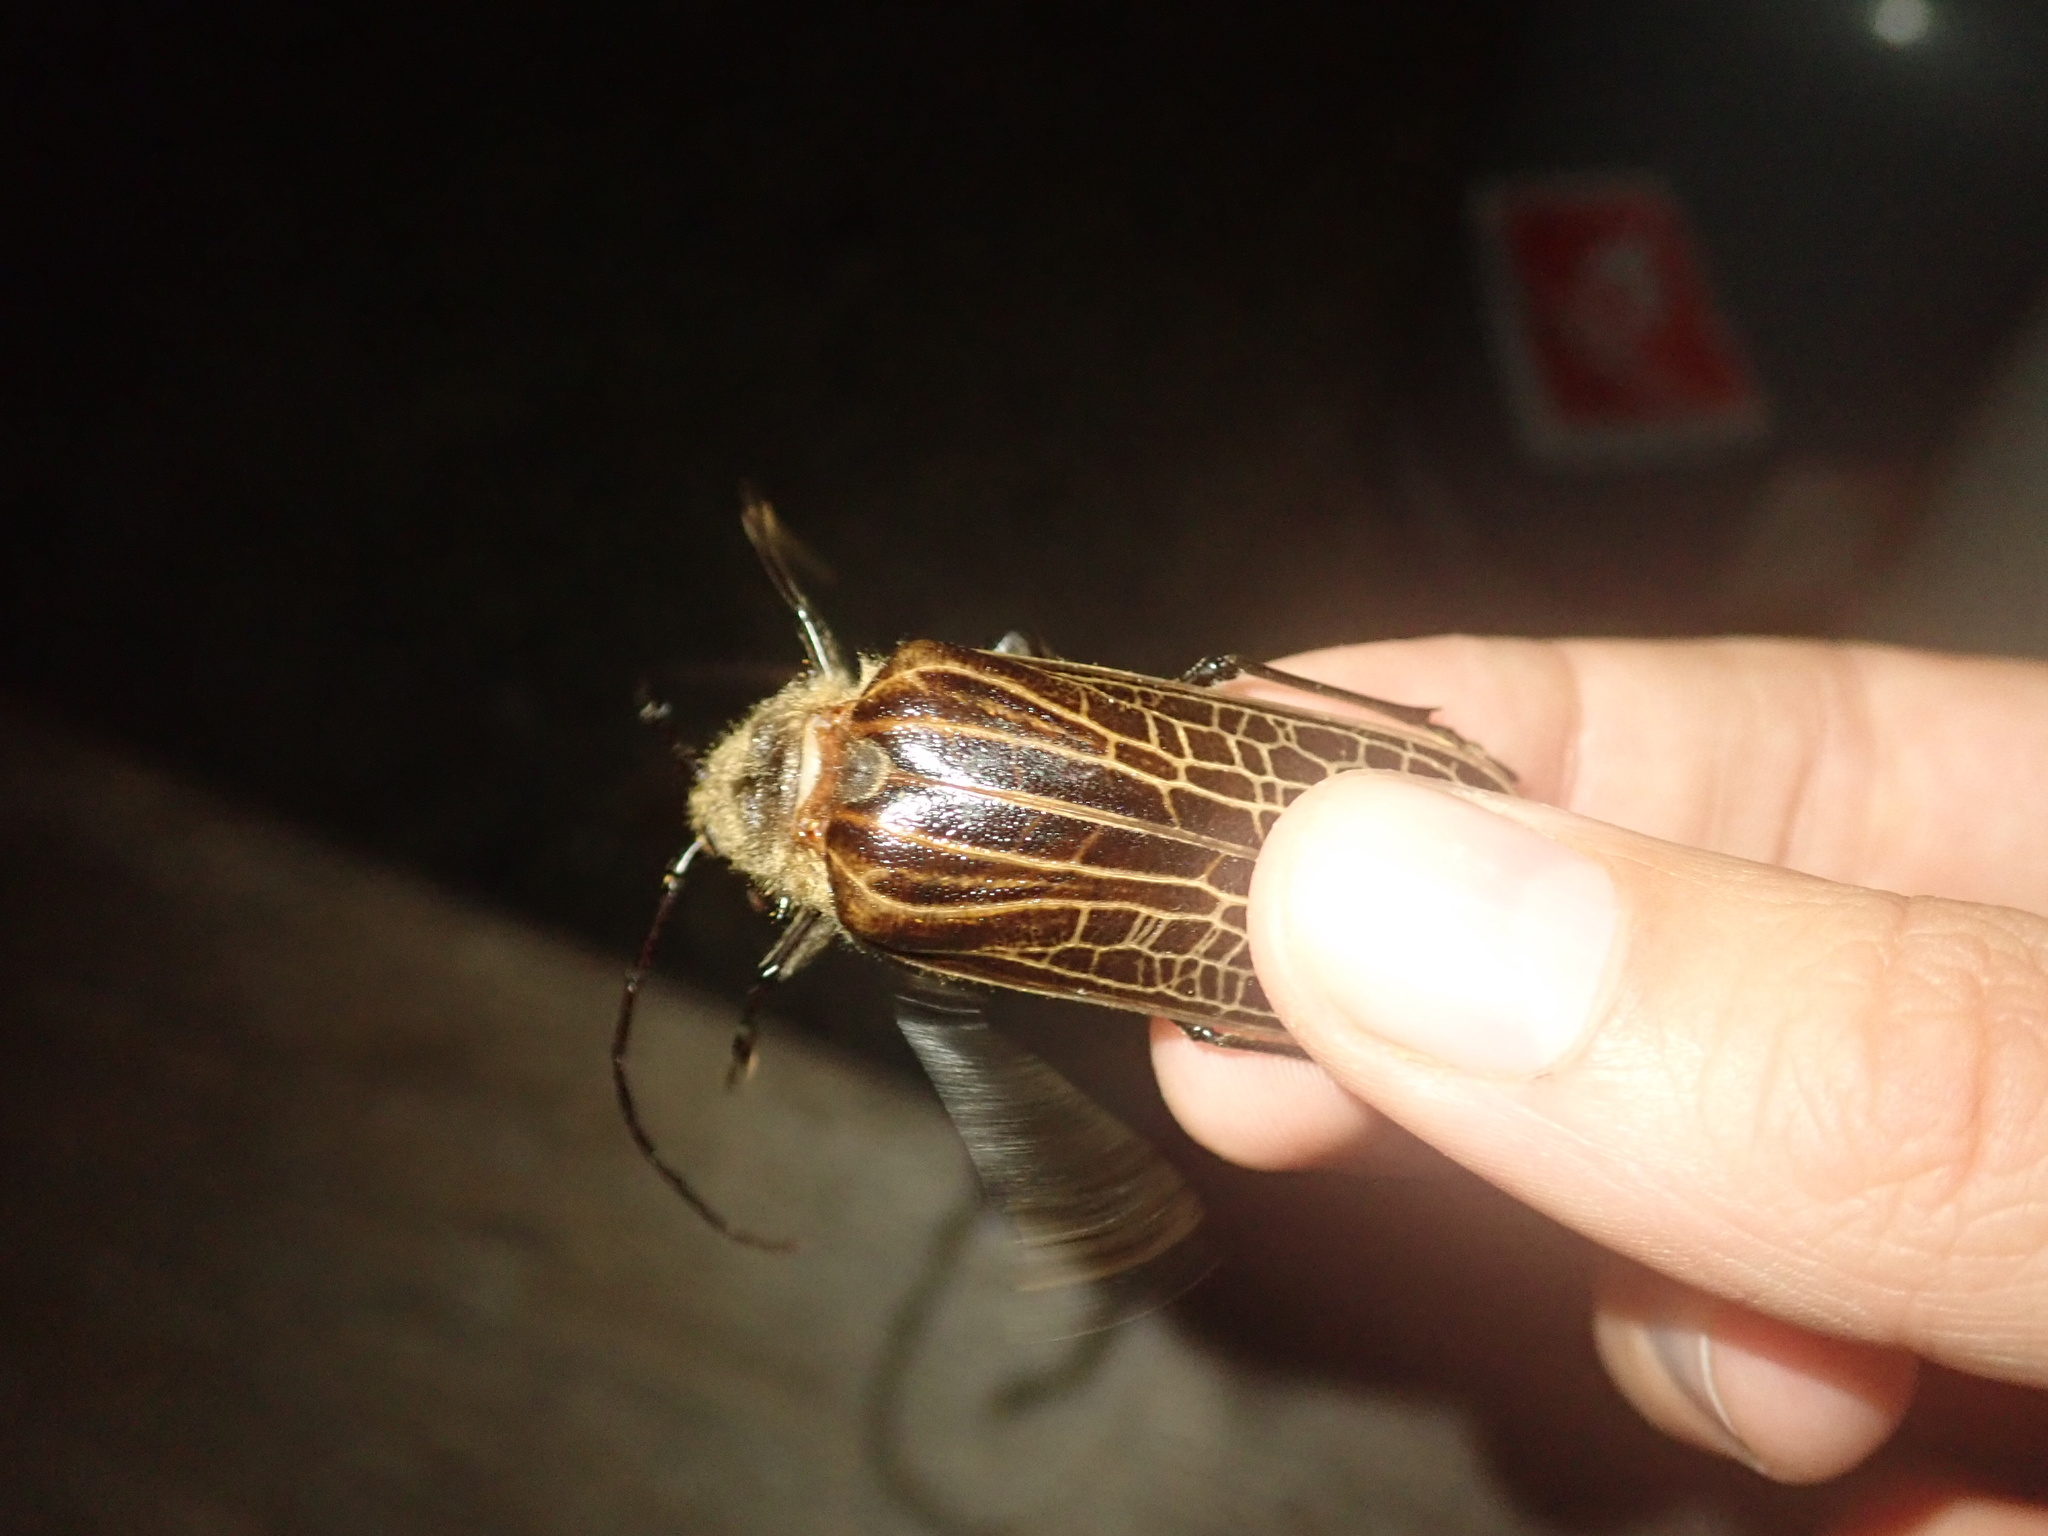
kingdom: Animalia
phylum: Arthropoda
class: Insecta
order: Coleoptera
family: Cerambycidae
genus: Prionoplus
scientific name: Prionoplus reticularis
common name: Huhu beetle
